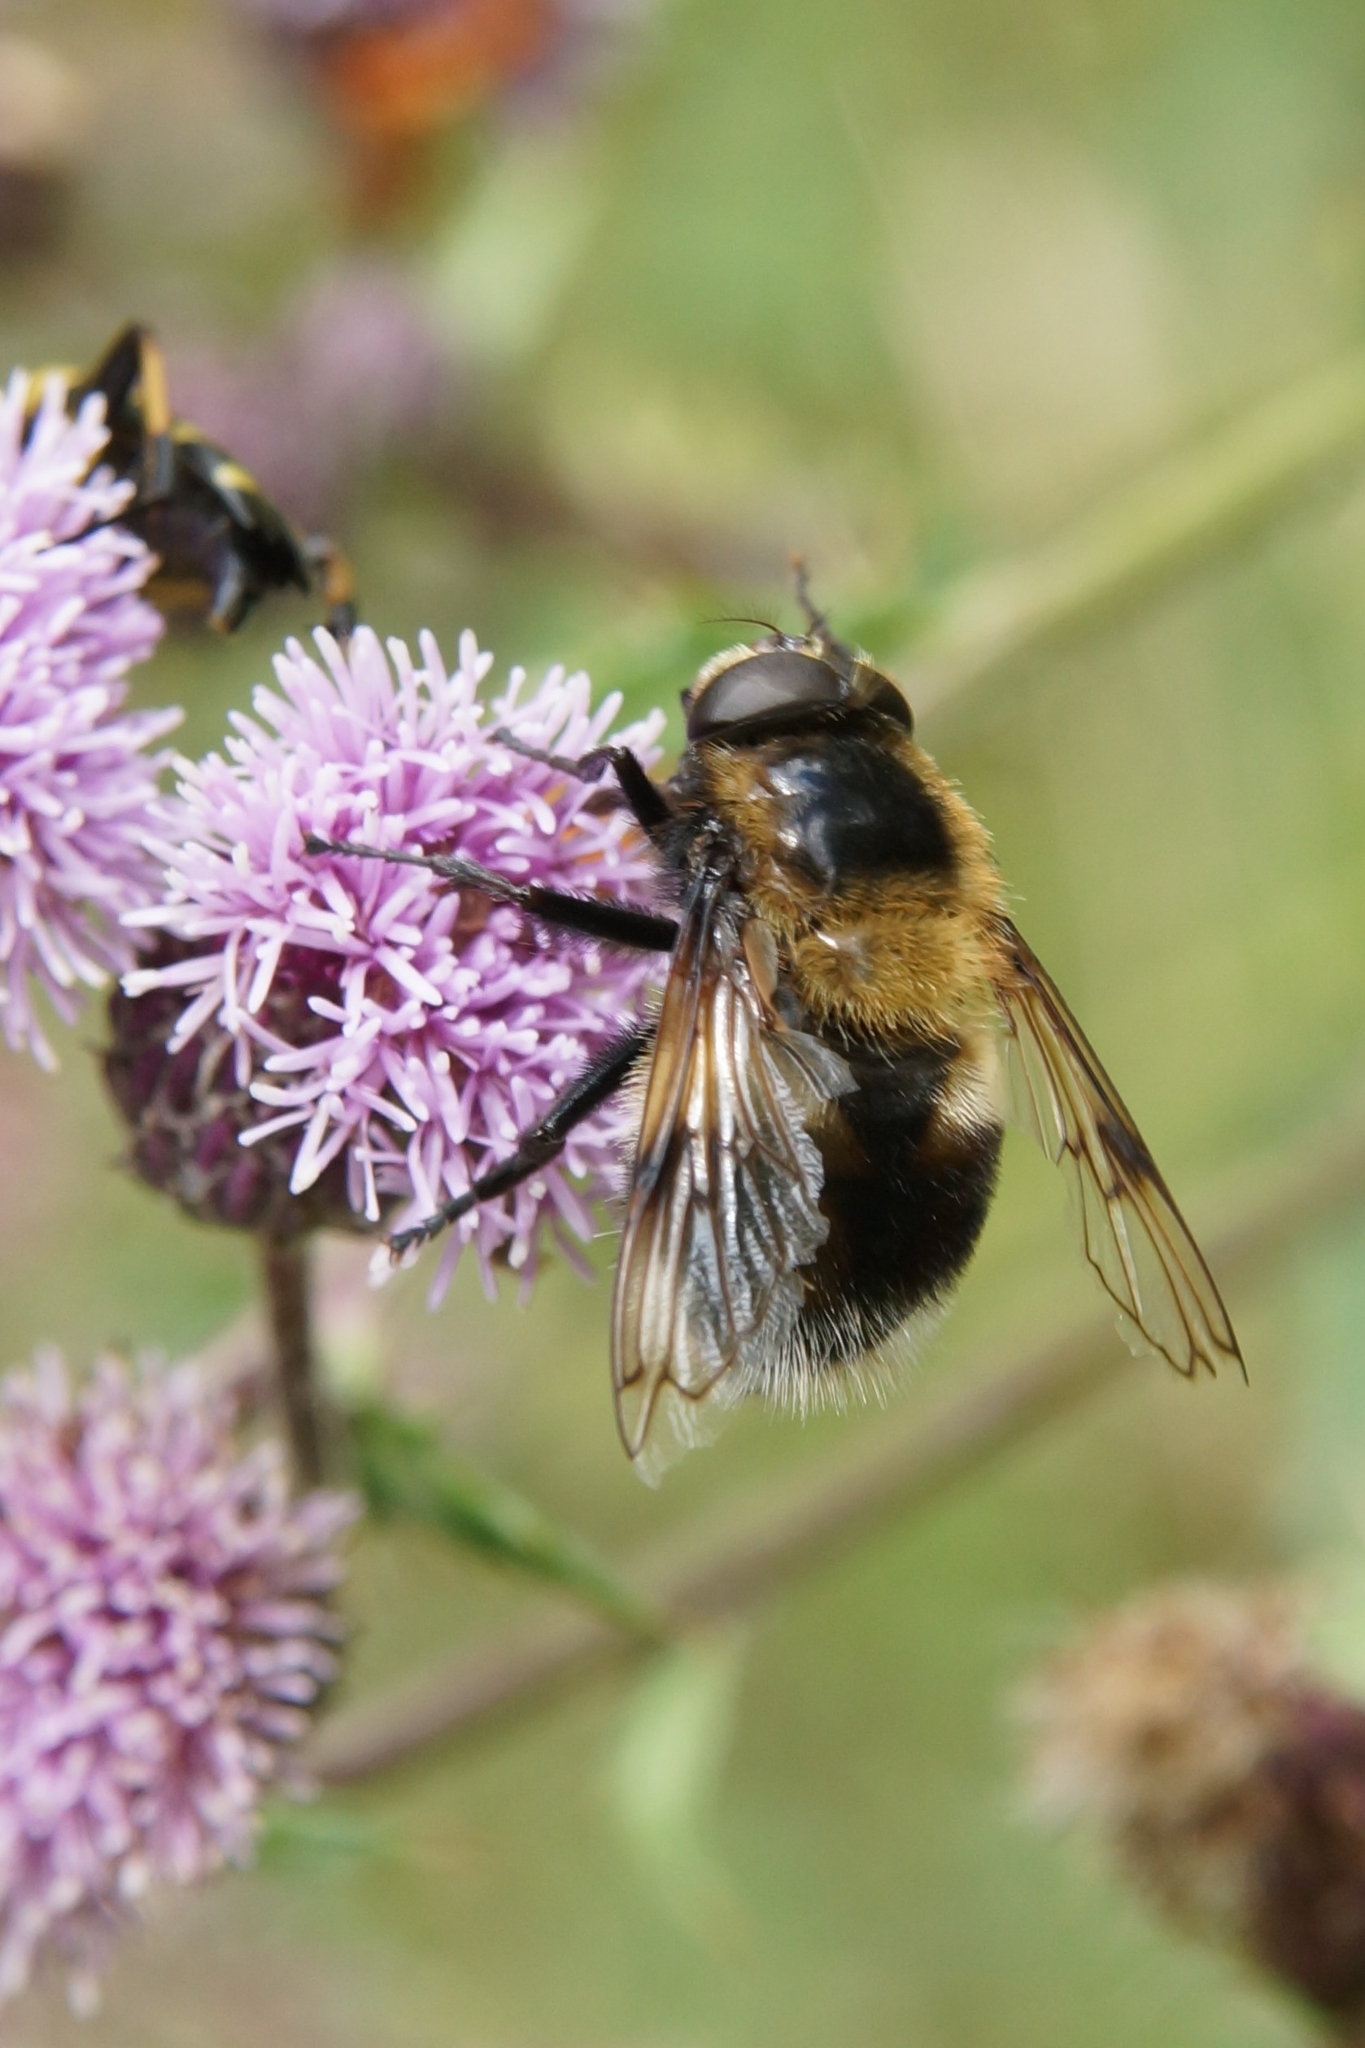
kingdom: Animalia
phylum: Arthropoda
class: Insecta
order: Diptera
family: Syrphidae
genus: Volucella
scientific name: Volucella bombylans
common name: Bumble bee hover fly
